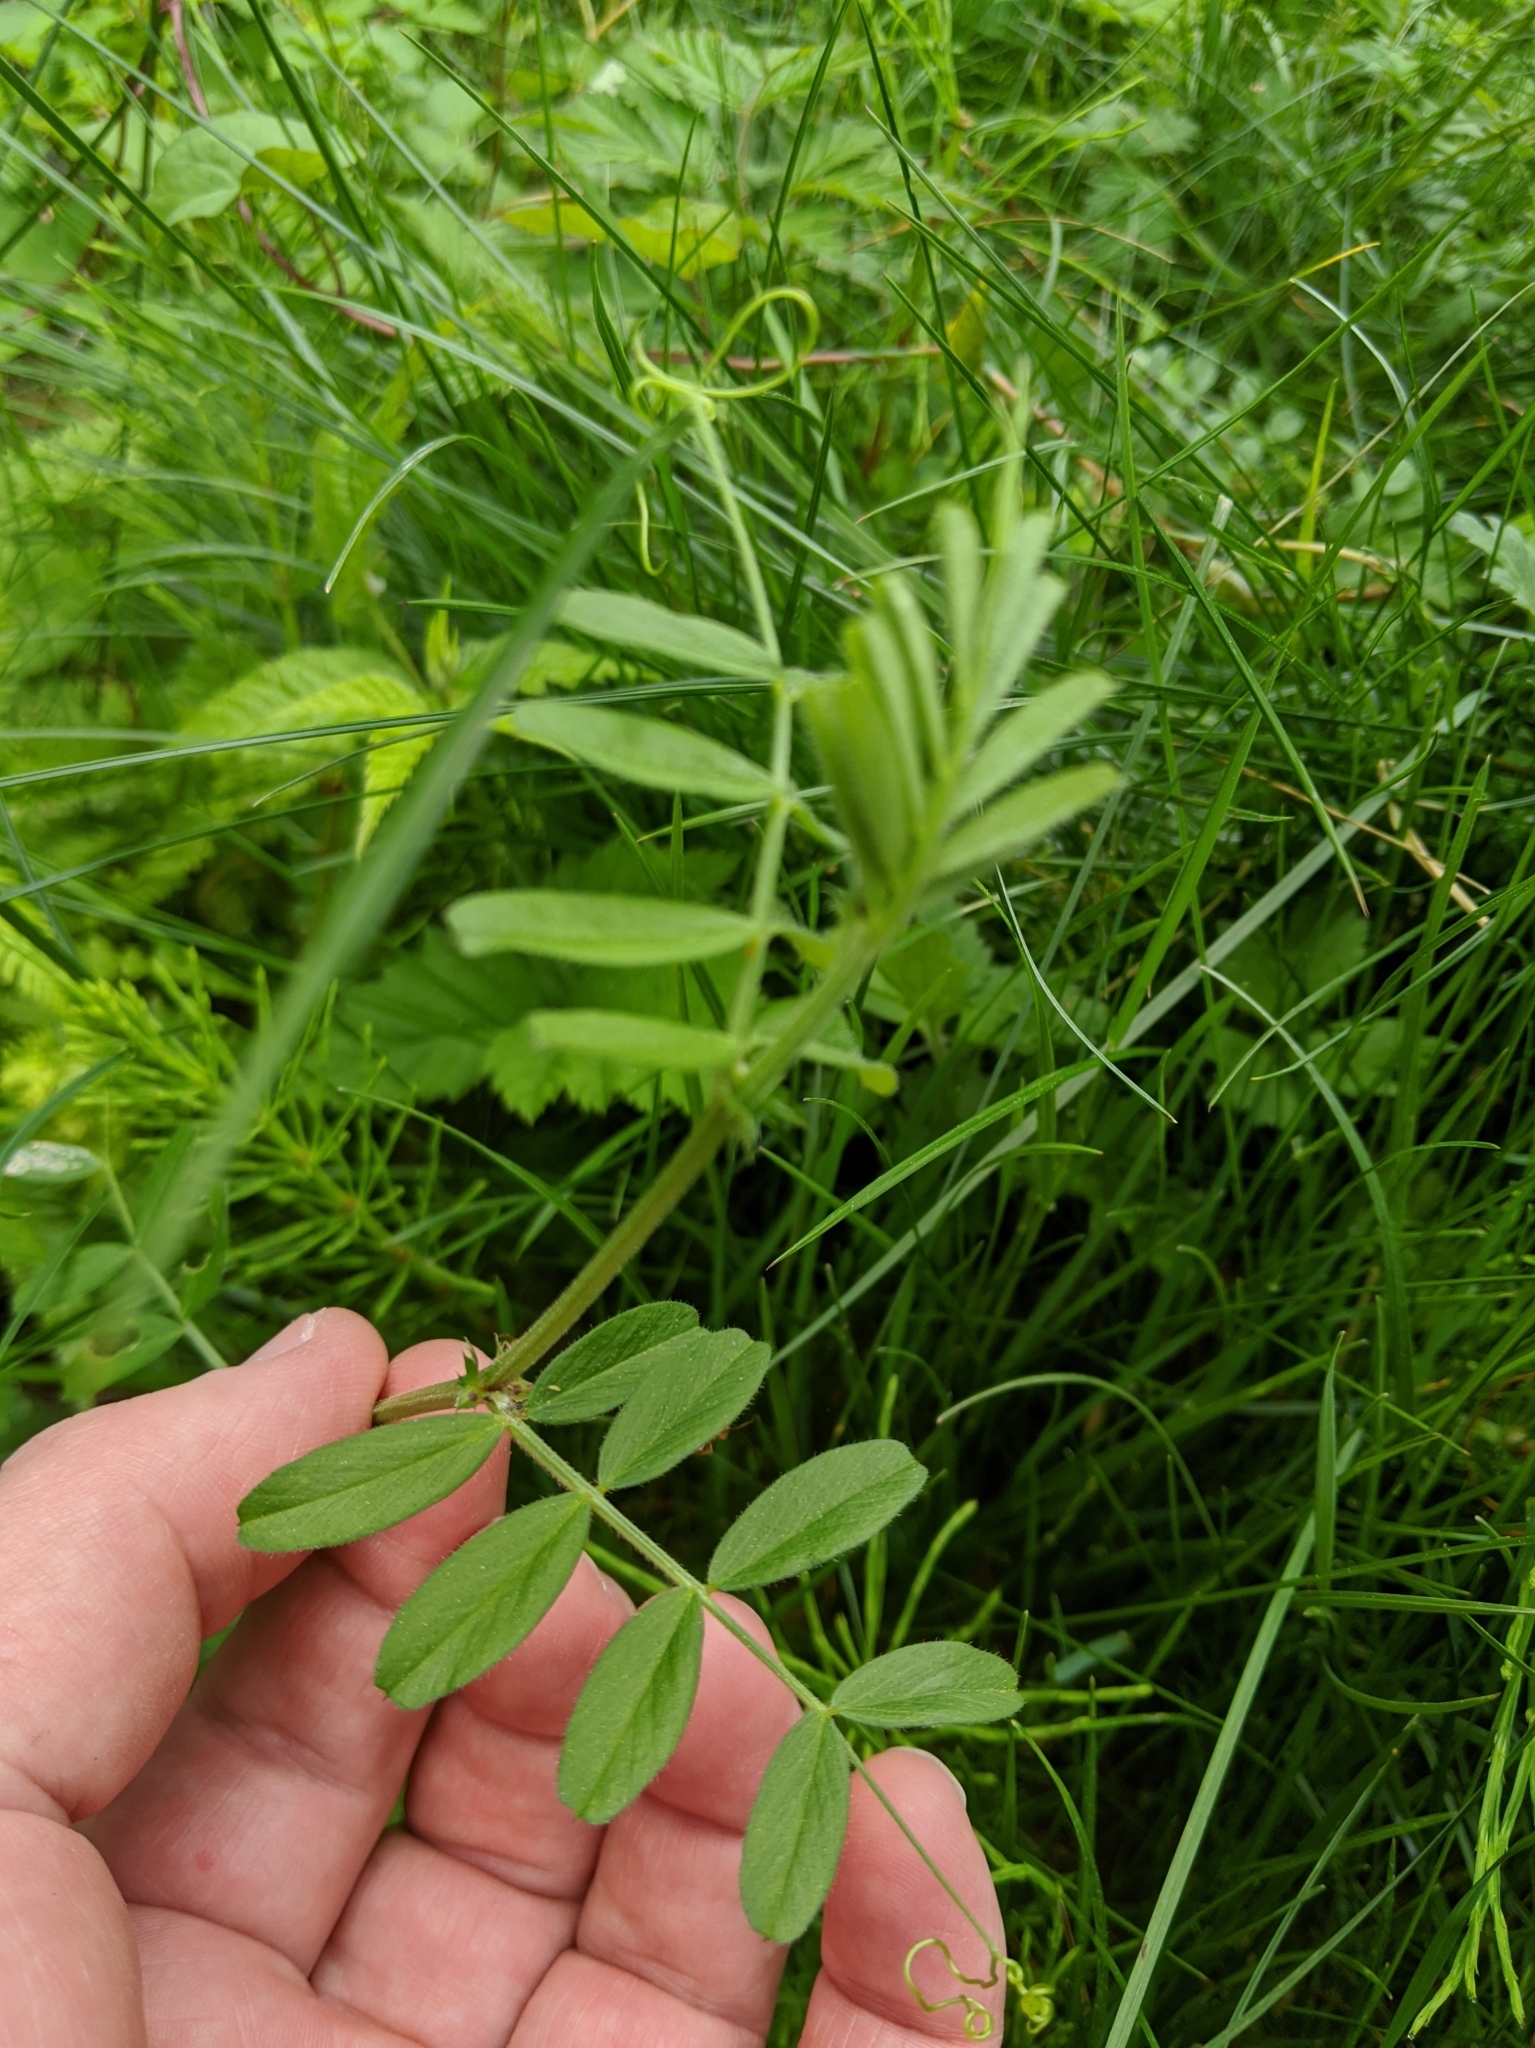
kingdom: Plantae
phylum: Tracheophyta
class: Magnoliopsida
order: Fabales
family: Fabaceae
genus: Vicia
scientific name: Vicia sativa
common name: Garden vetch
